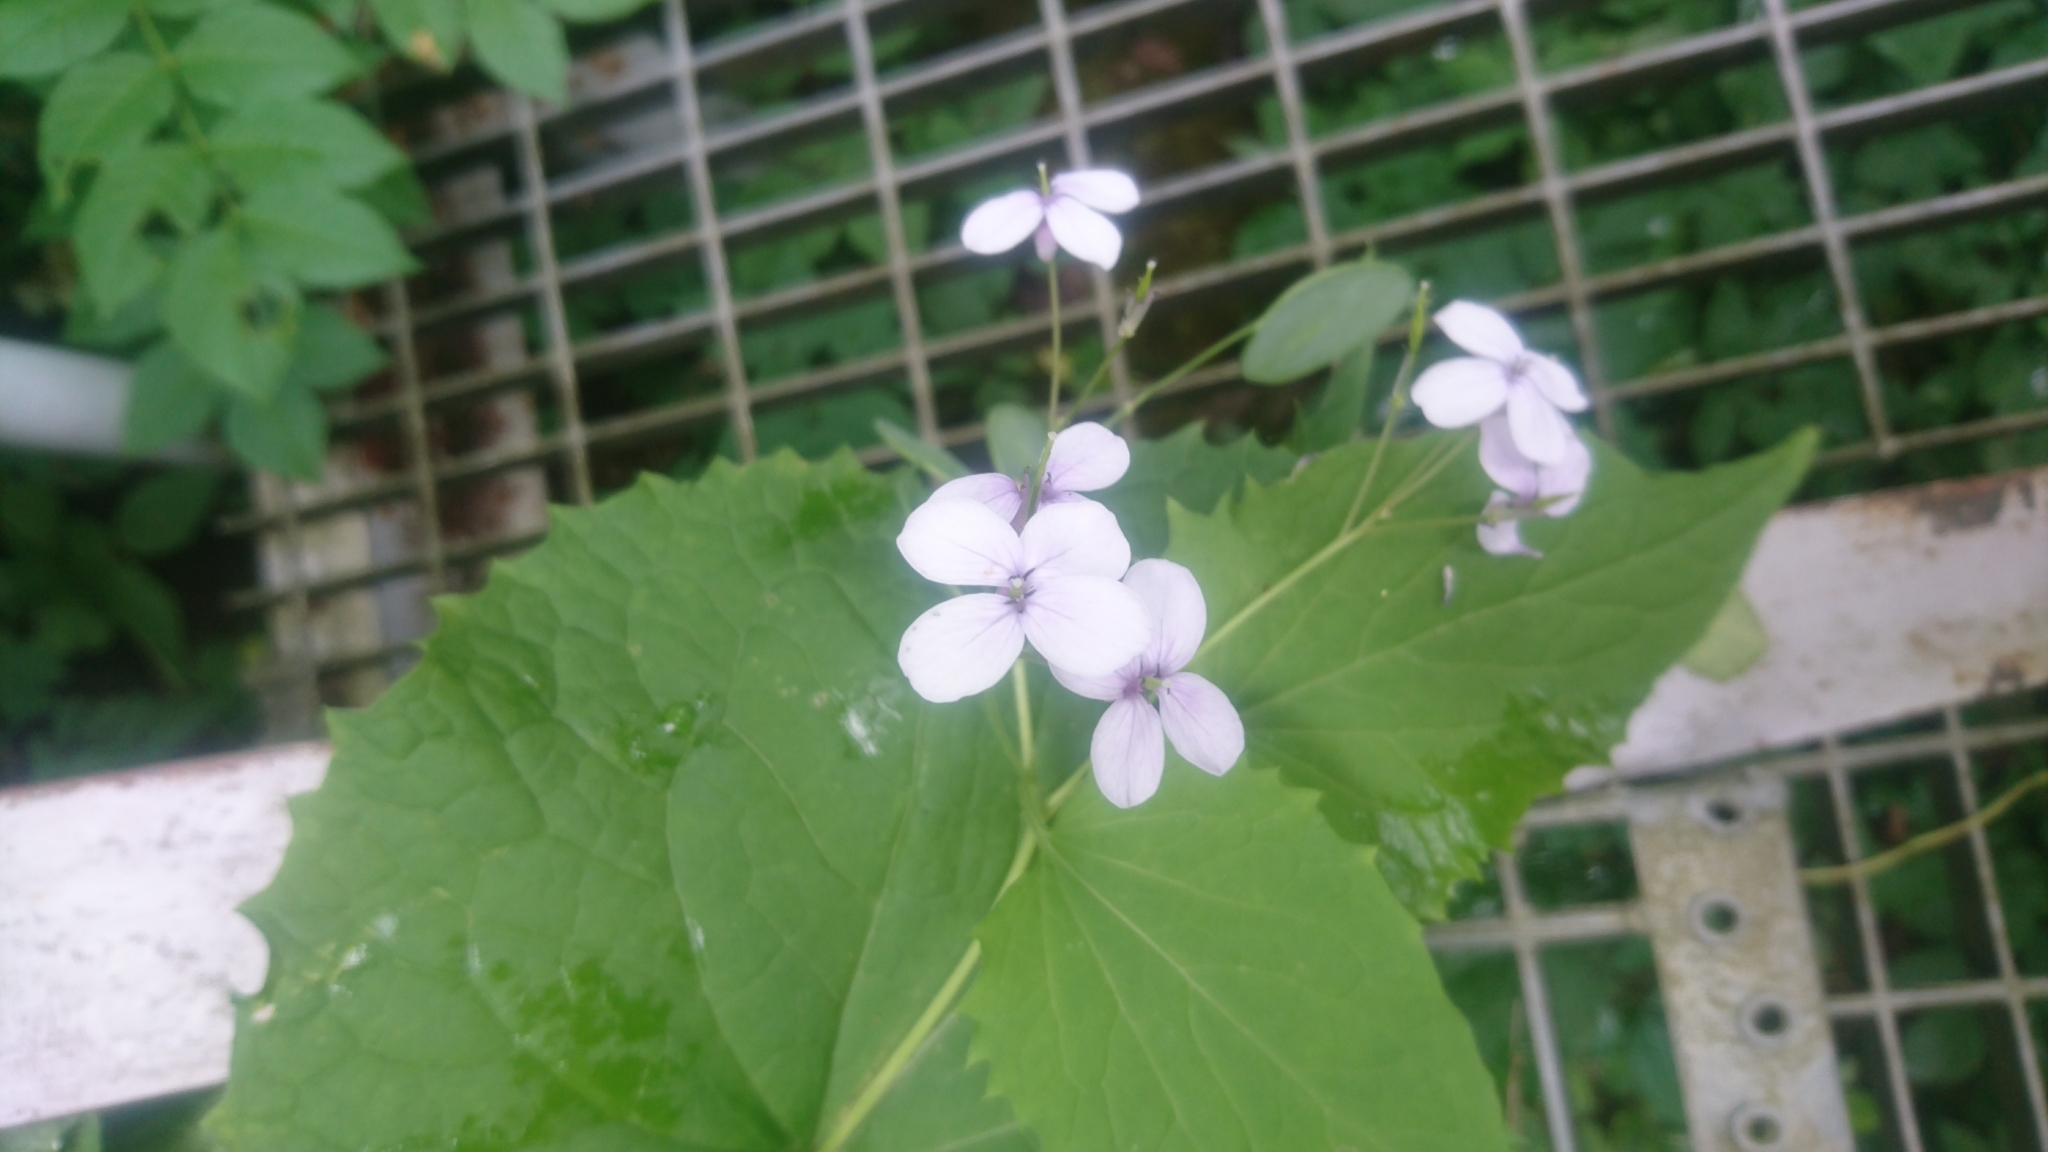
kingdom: Plantae
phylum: Tracheophyta
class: Magnoliopsida
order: Brassicales
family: Brassicaceae
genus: Lunaria
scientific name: Lunaria rediviva
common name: Perennial honesty
